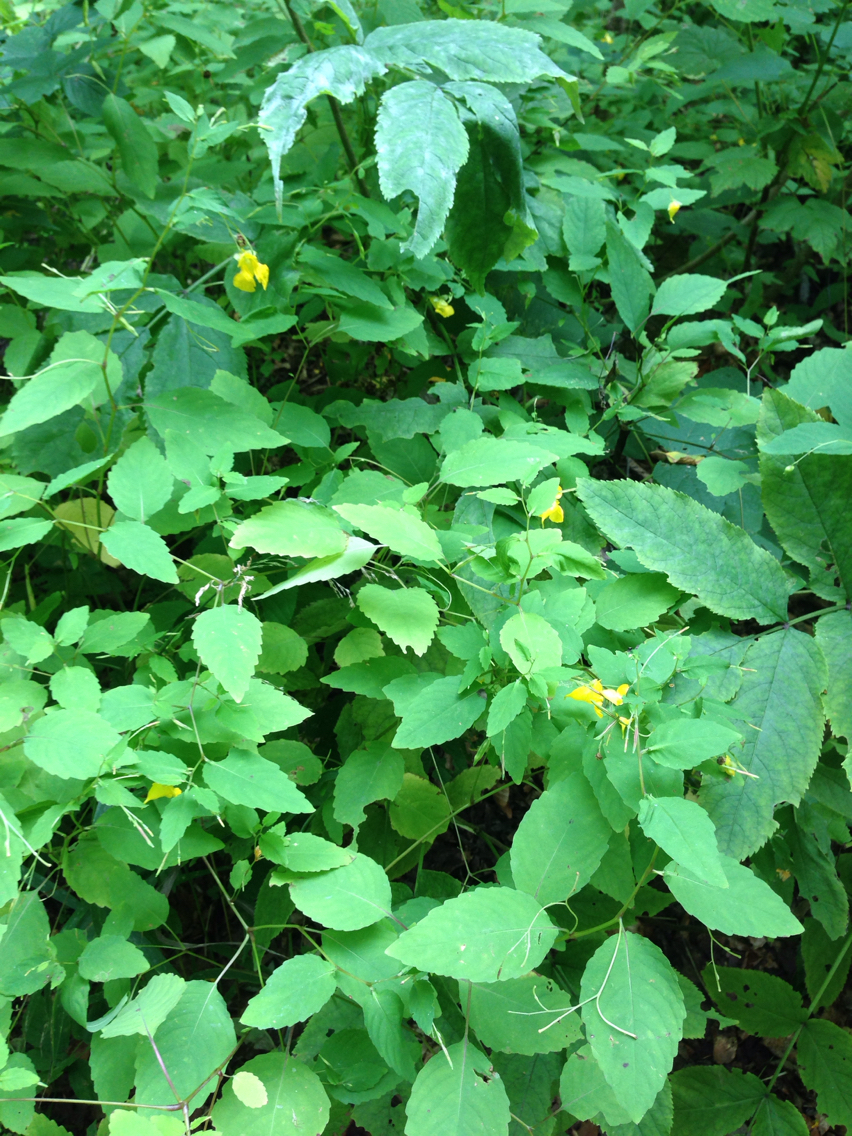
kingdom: Plantae
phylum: Tracheophyta
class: Magnoliopsida
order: Ericales
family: Balsaminaceae
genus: Impatiens
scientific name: Impatiens pallida
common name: Pale snapweed
